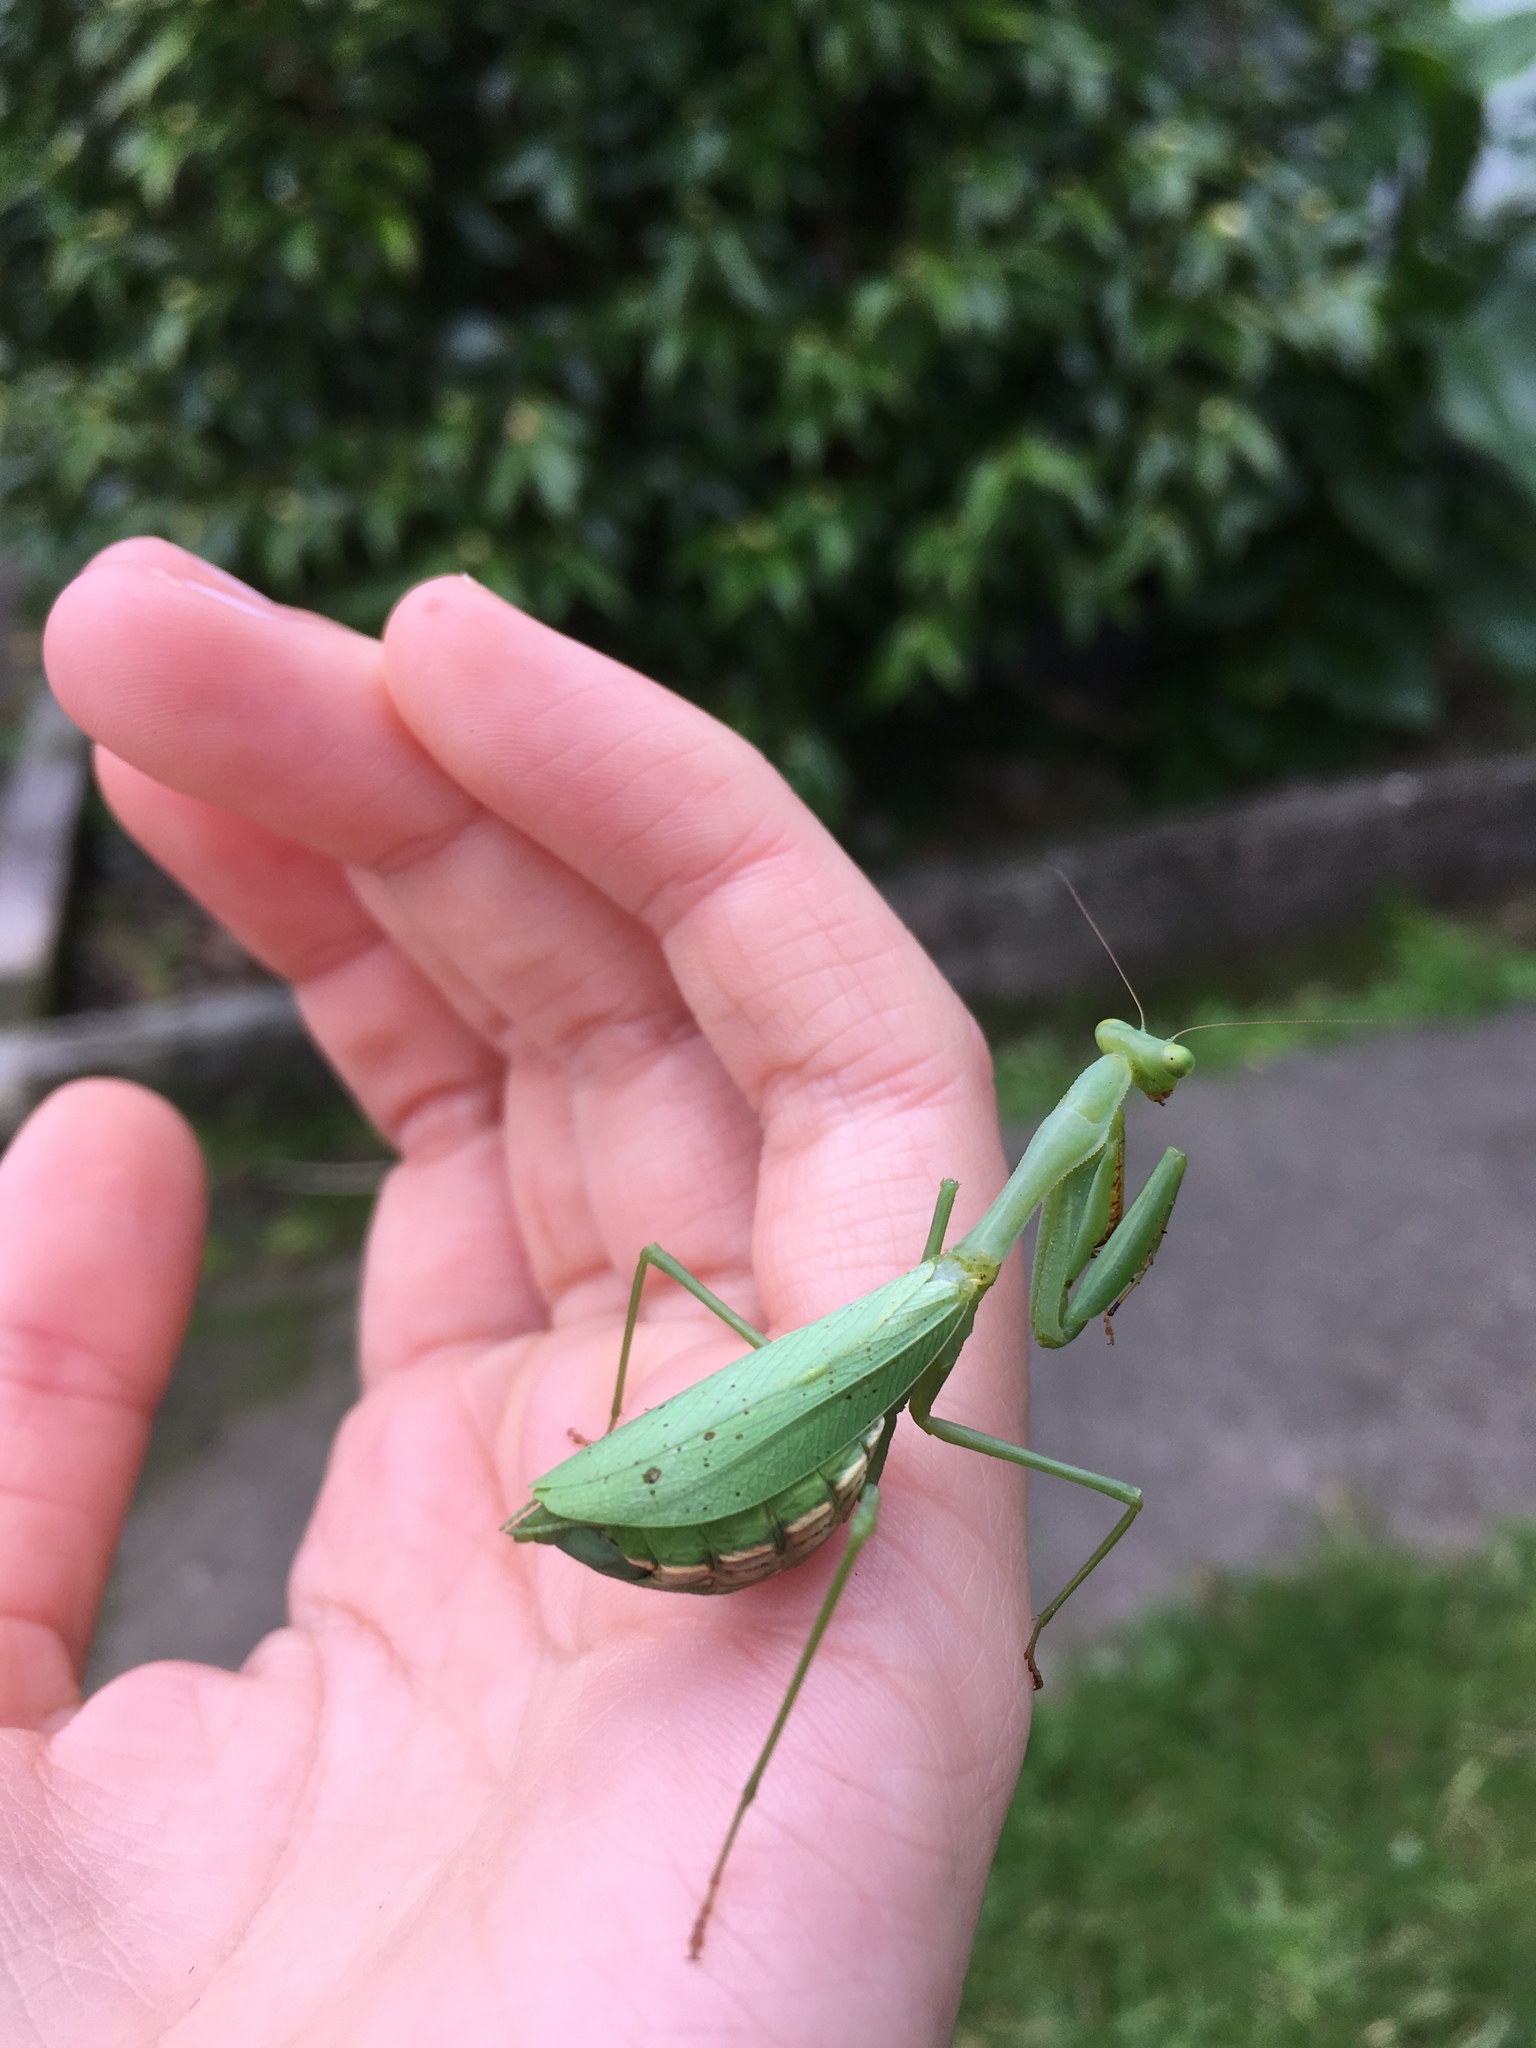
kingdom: Animalia
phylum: Arthropoda
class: Insecta
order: Mantodea
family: Miomantidae
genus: Miomantis
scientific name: Miomantis caffra
